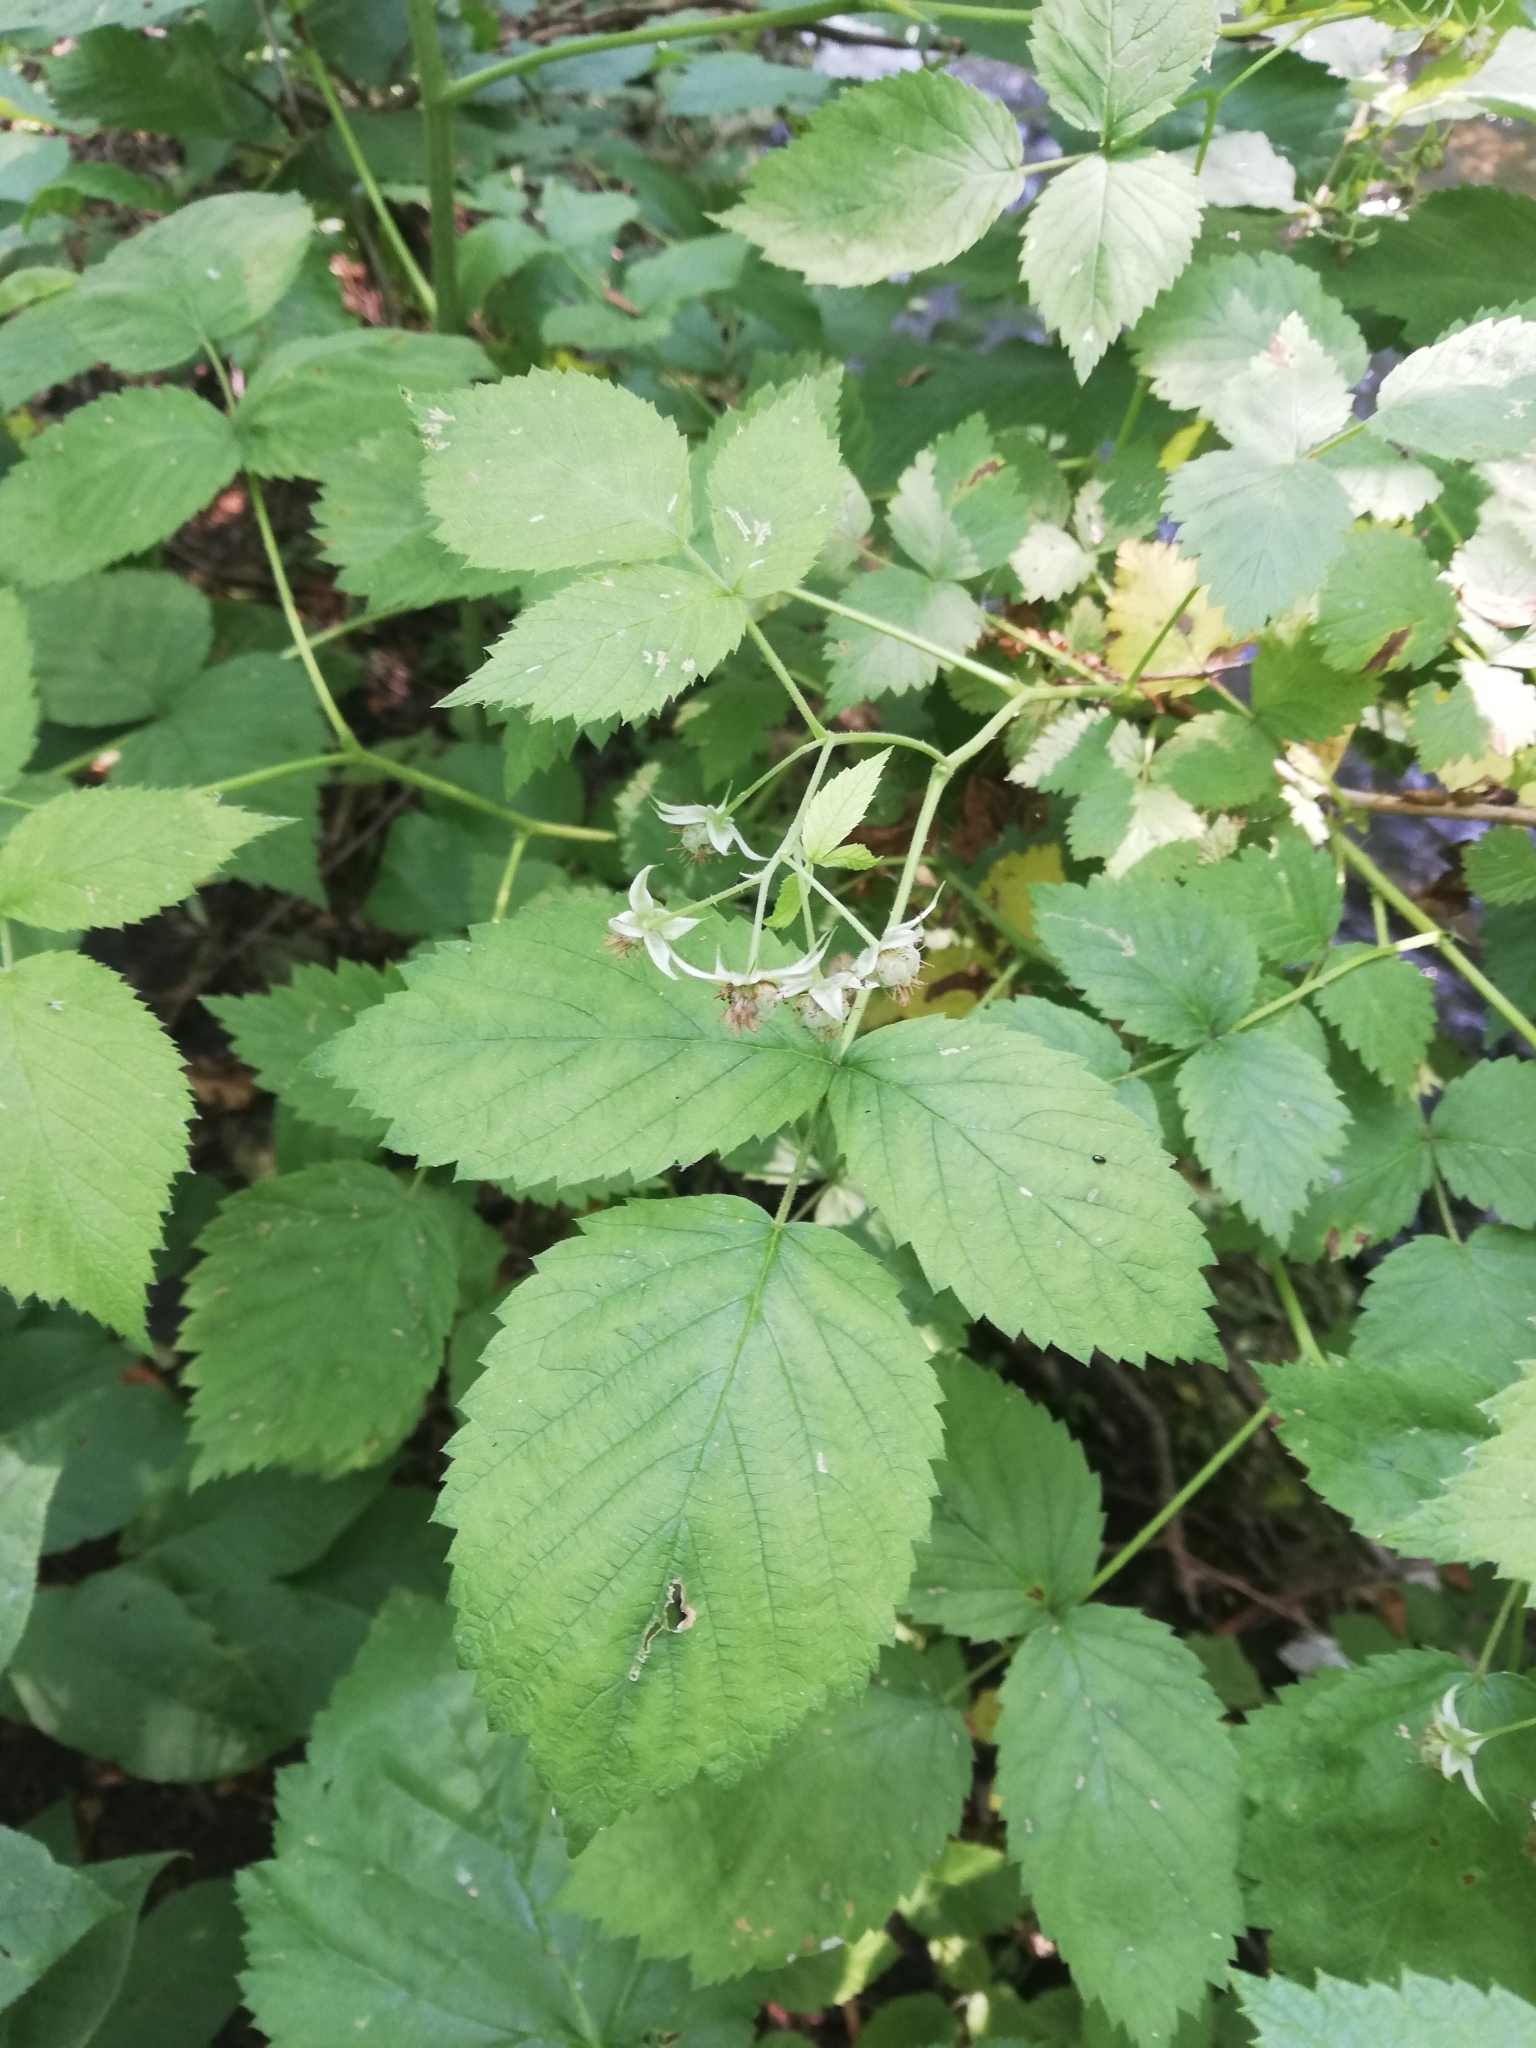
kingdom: Plantae
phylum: Tracheophyta
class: Magnoliopsida
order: Rosales
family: Rosaceae
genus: Rubus
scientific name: Rubus idaeus
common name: Raspberry
